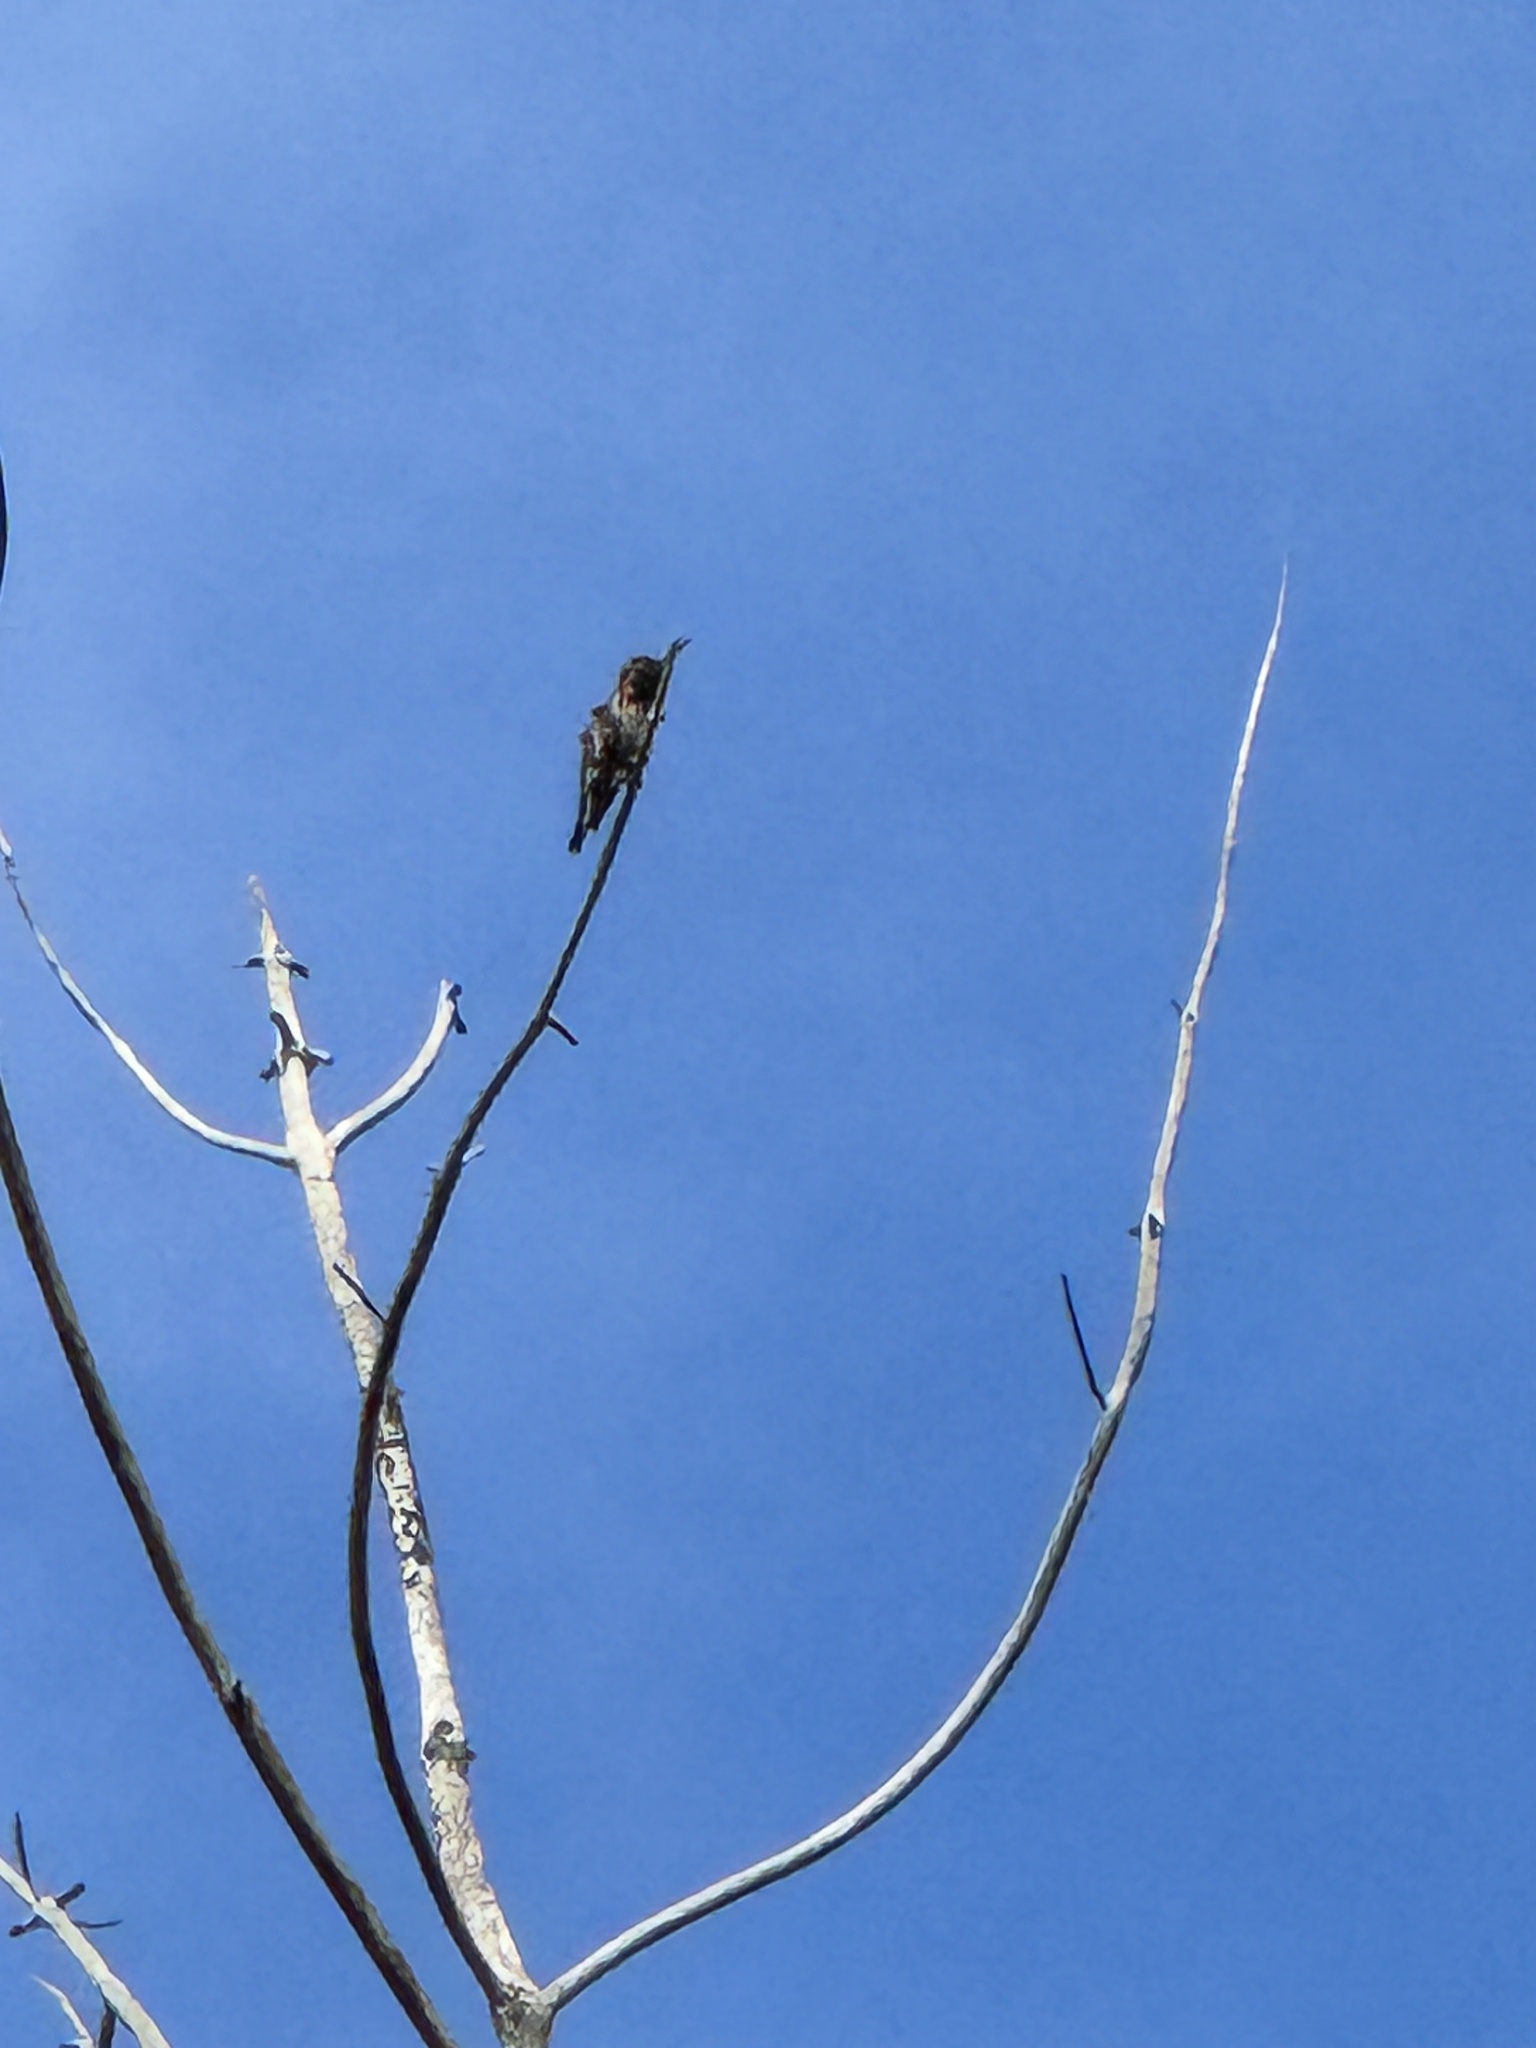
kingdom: Animalia
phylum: Chordata
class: Aves
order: Apodiformes
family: Trochilidae
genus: Calypte
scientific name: Calypte anna
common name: Anna's hummingbird
